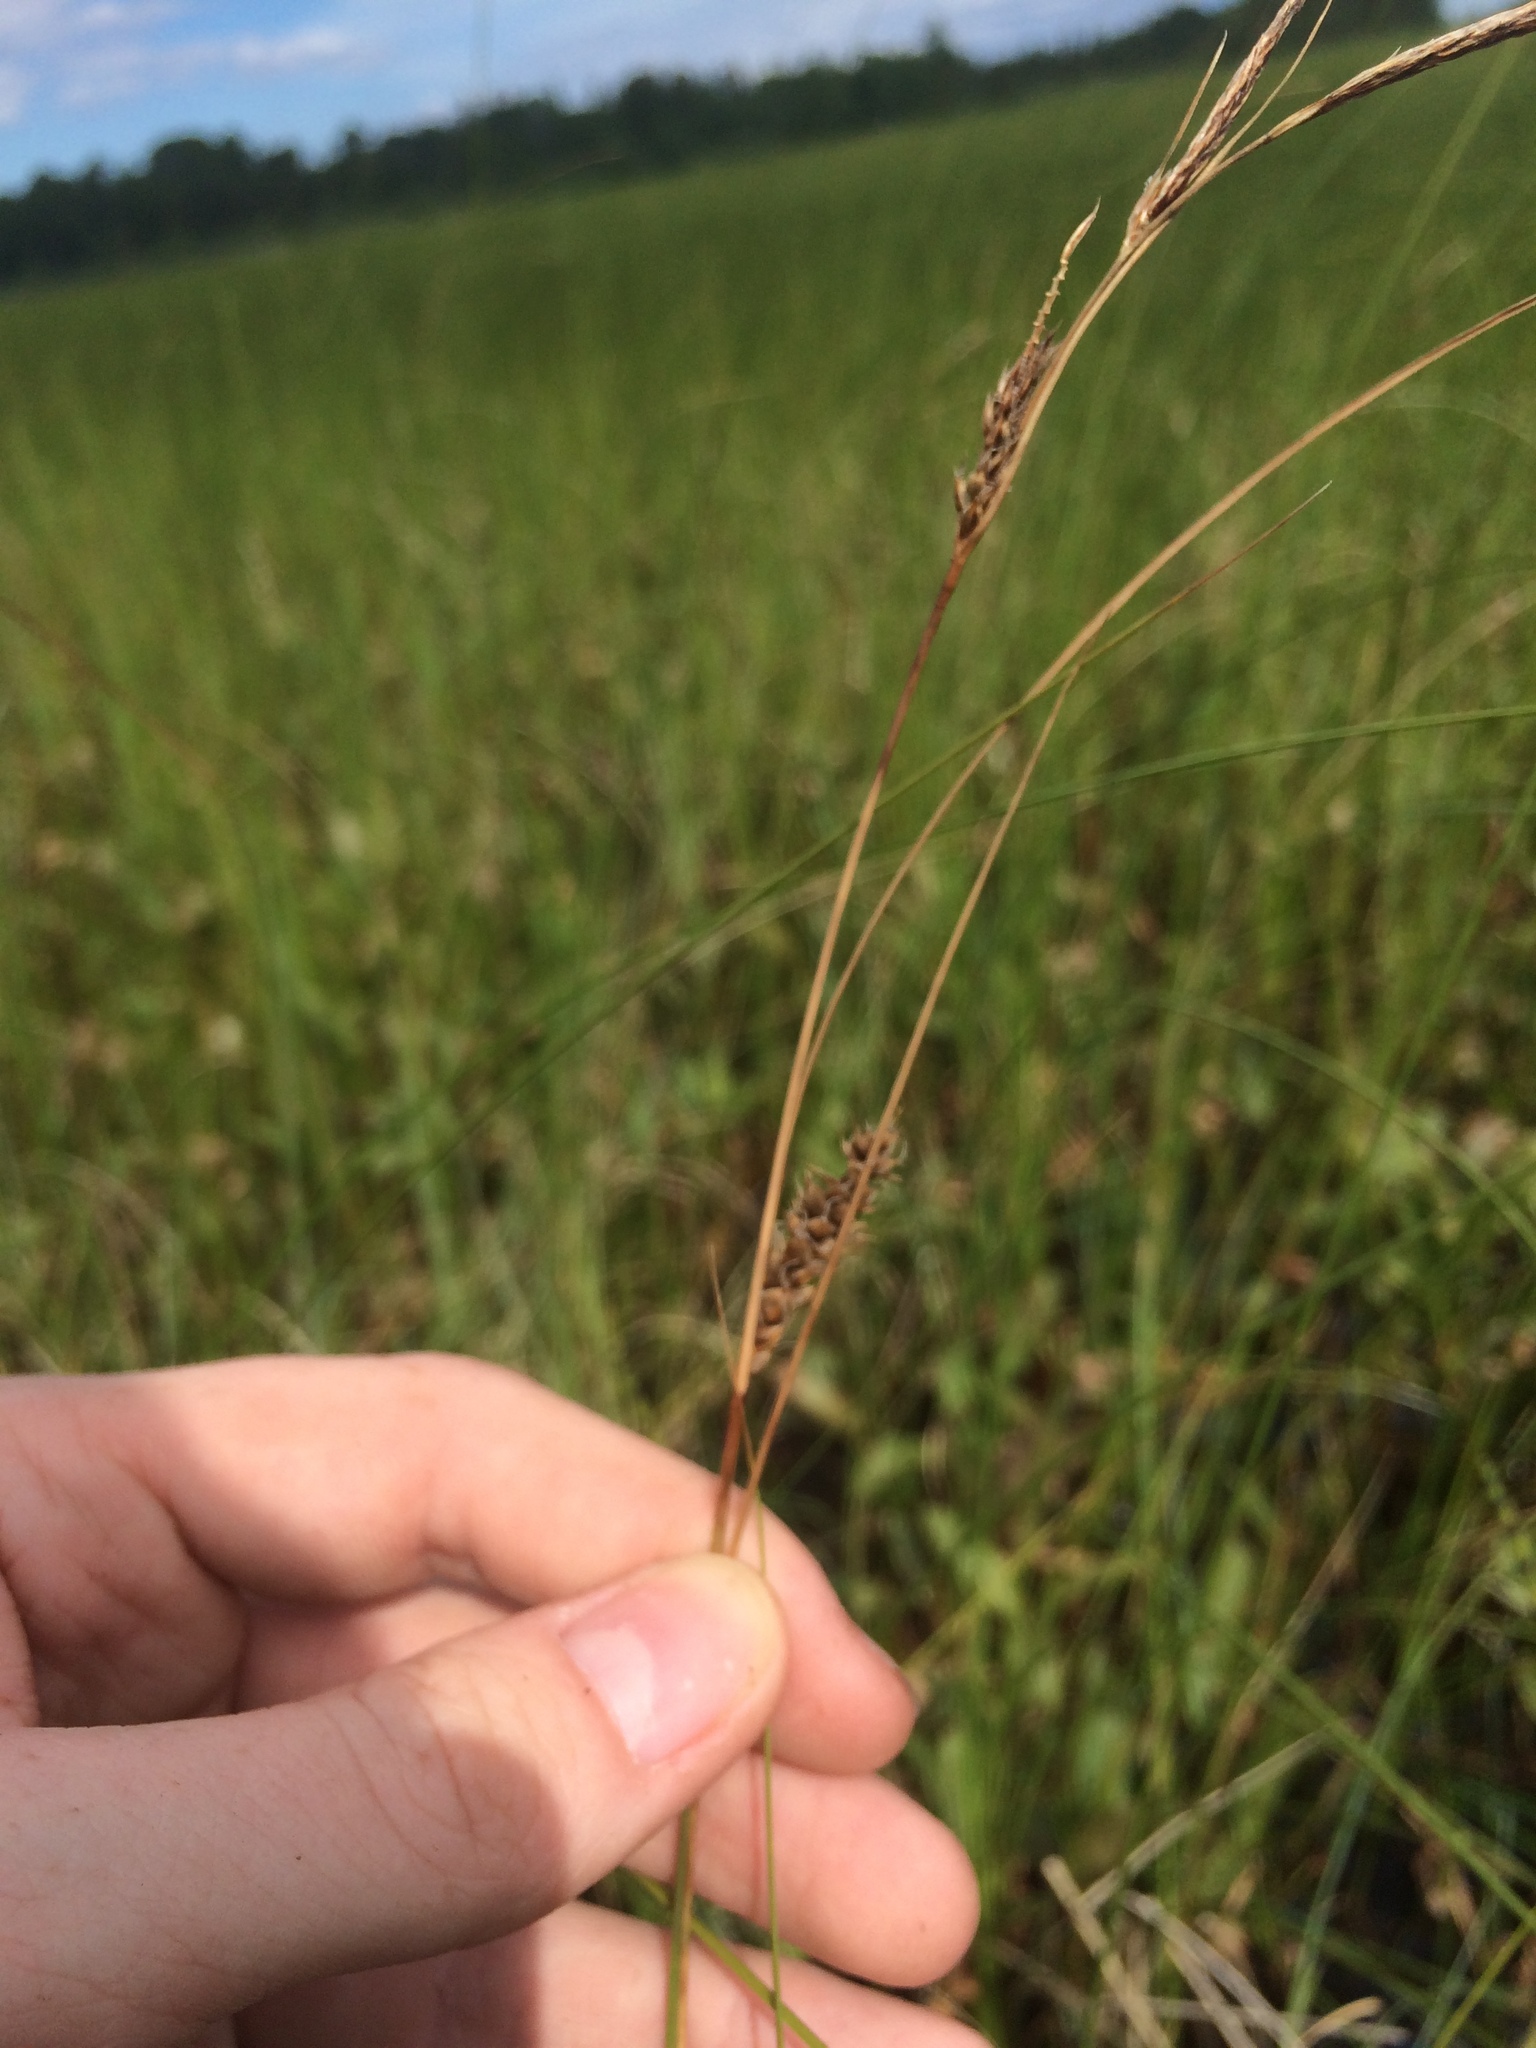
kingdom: Plantae
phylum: Tracheophyta
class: Liliopsida
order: Poales
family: Cyperaceae
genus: Carex
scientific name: Carex lasiocarpa
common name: Slender sedge
